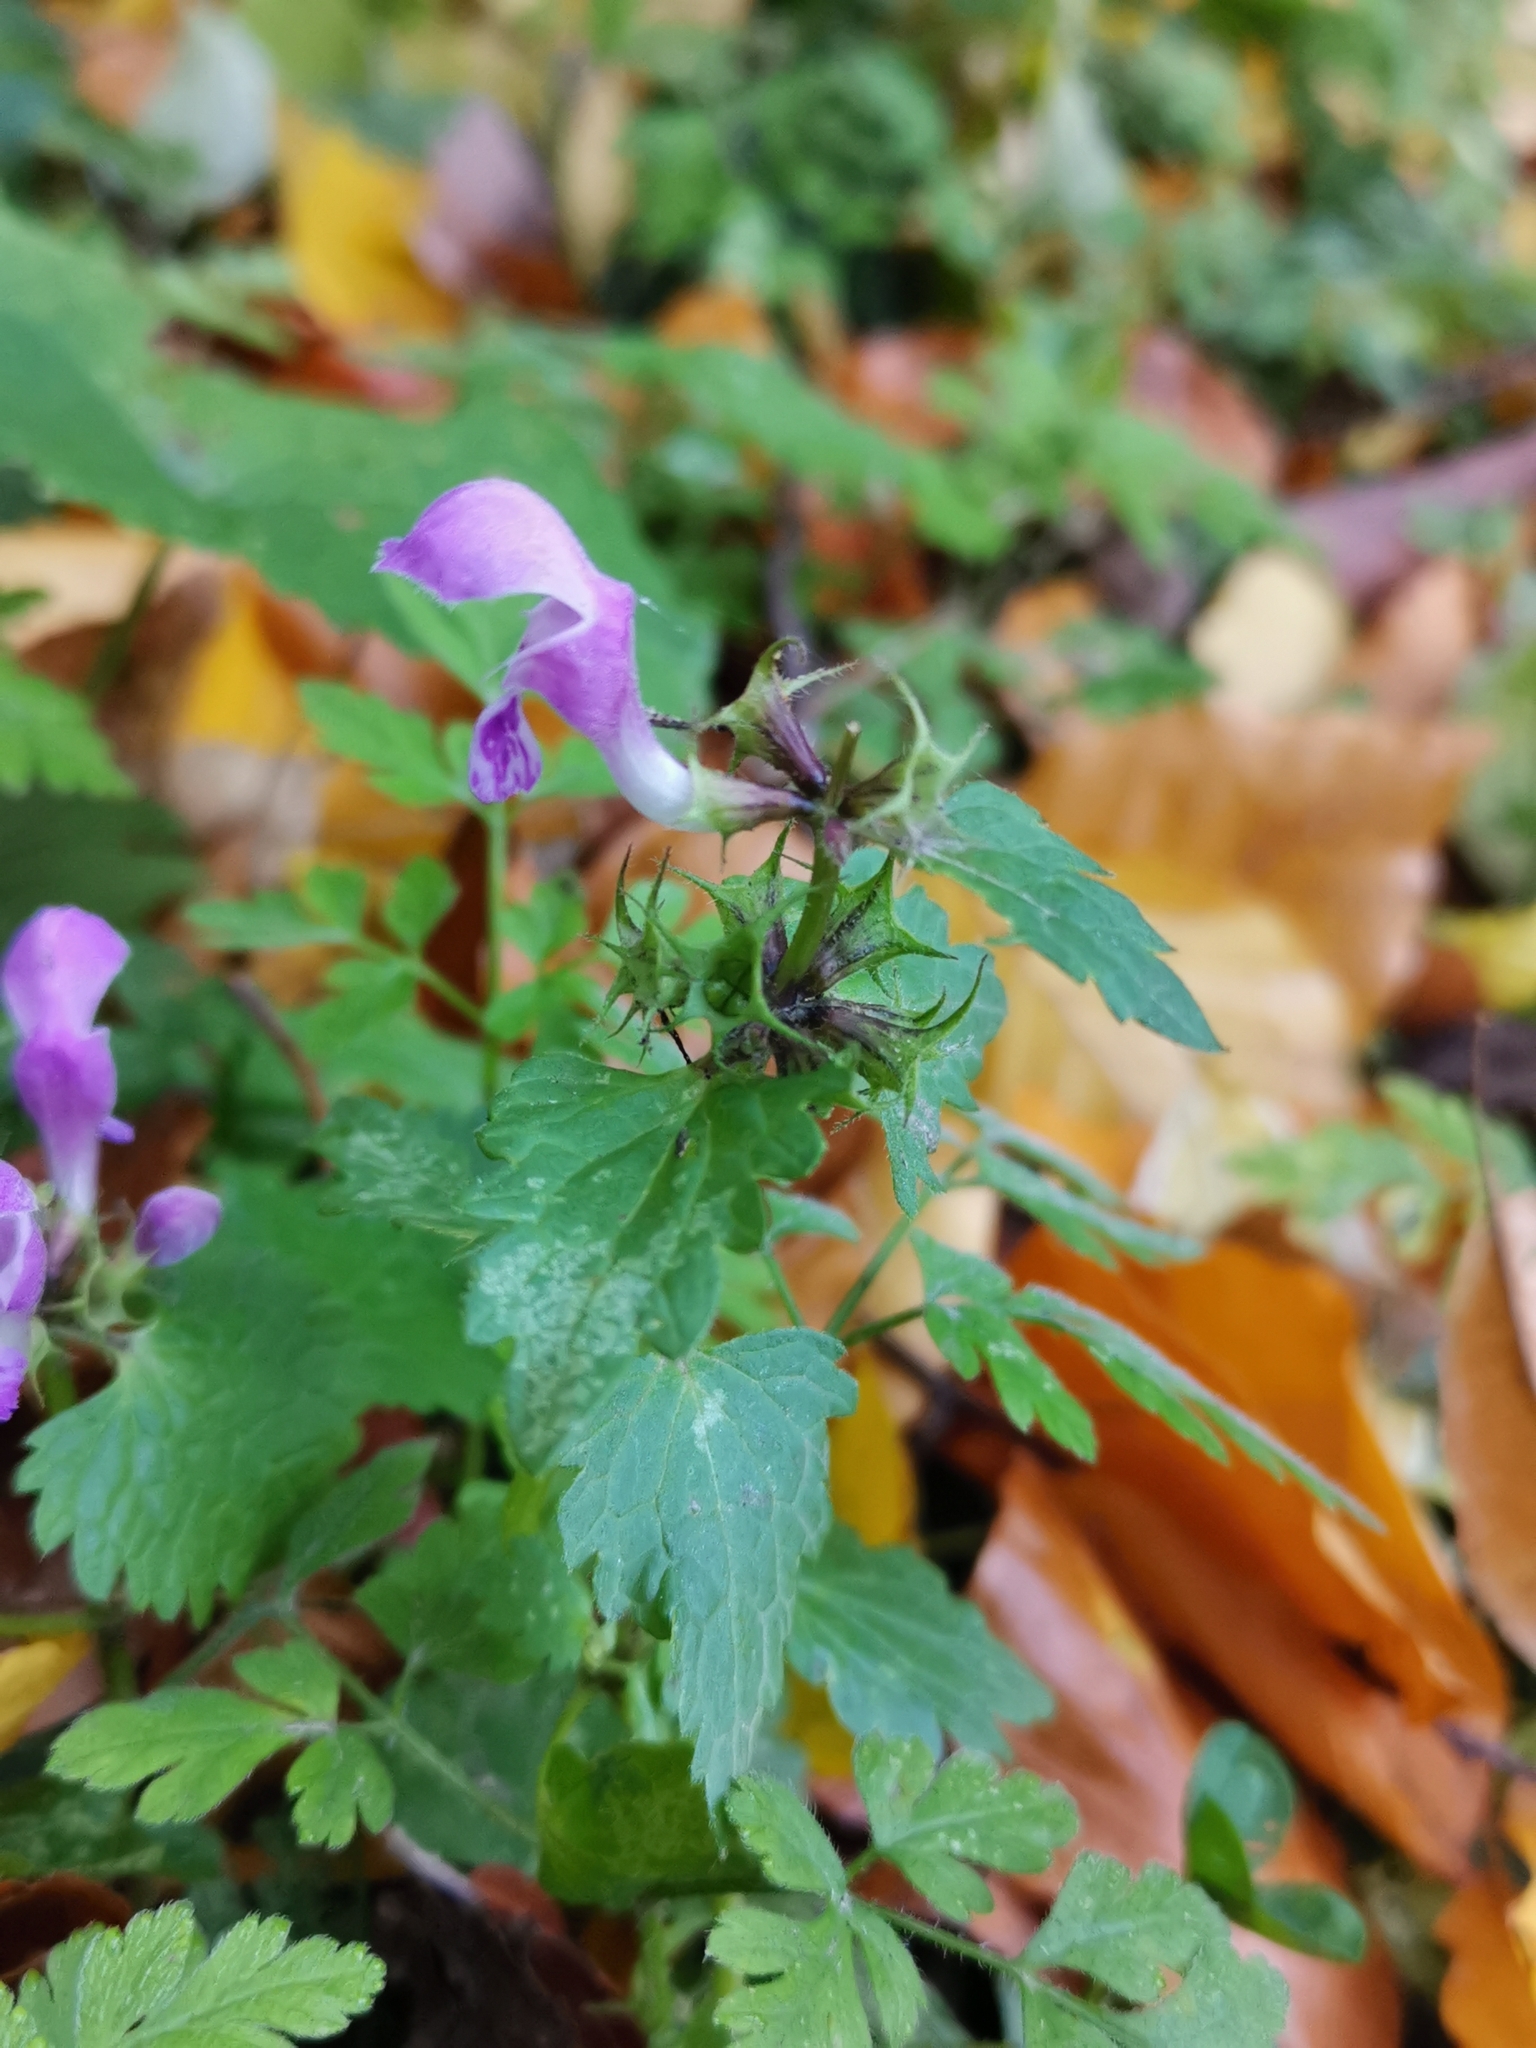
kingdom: Plantae
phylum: Tracheophyta
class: Magnoliopsida
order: Lamiales
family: Lamiaceae
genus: Lamium
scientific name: Lamium maculatum
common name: Spotted dead-nettle
